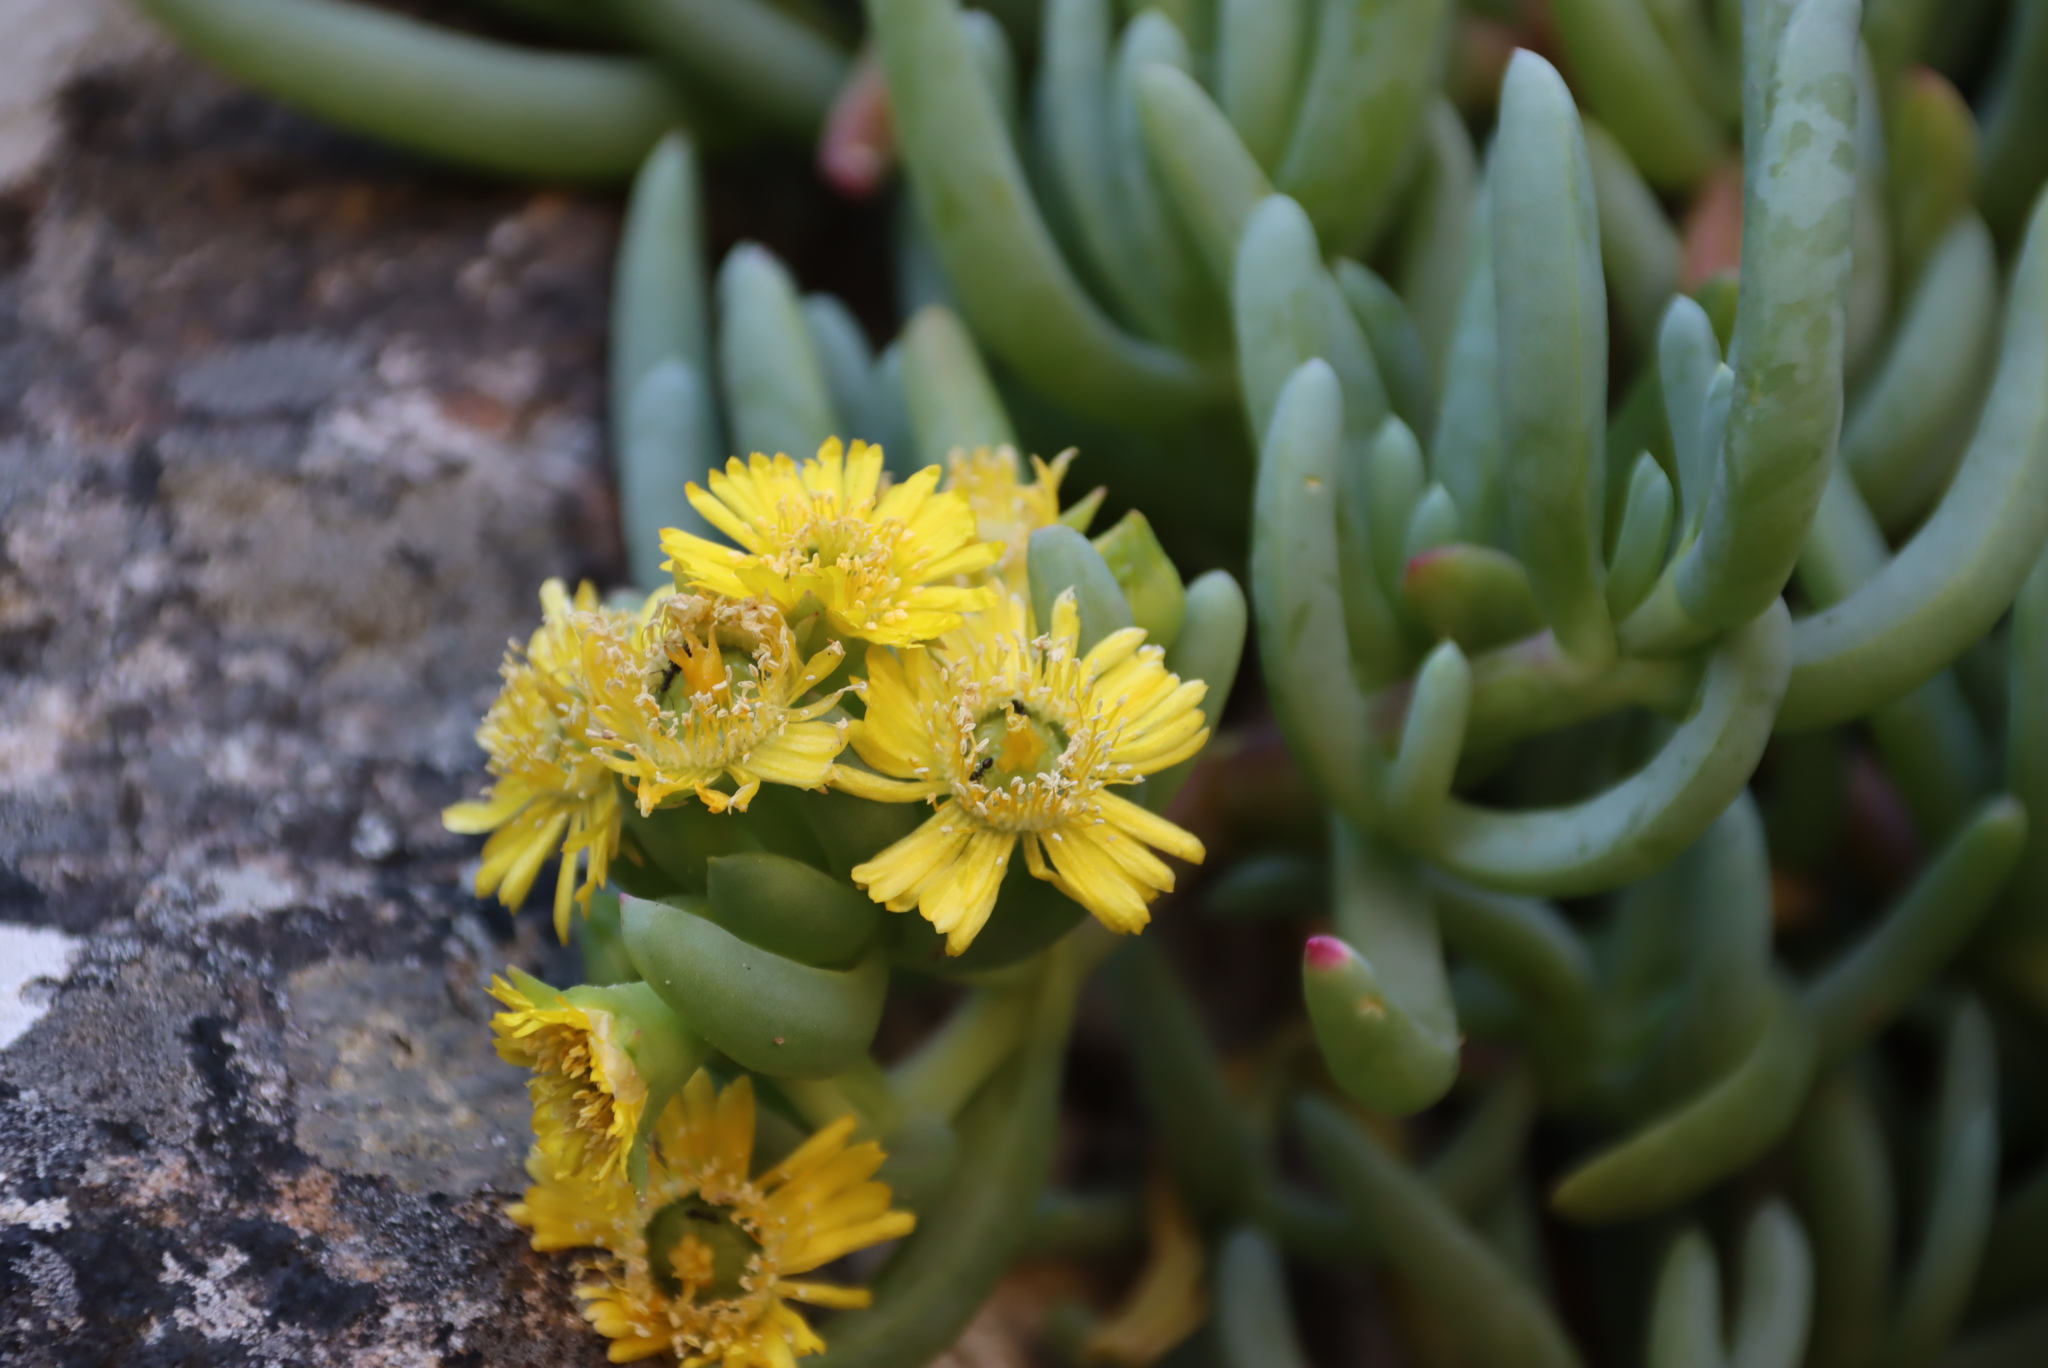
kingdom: Plantae
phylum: Tracheophyta
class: Magnoliopsida
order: Caryophyllales
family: Aizoaceae
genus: Scopelogena
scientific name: Scopelogena verruculata
